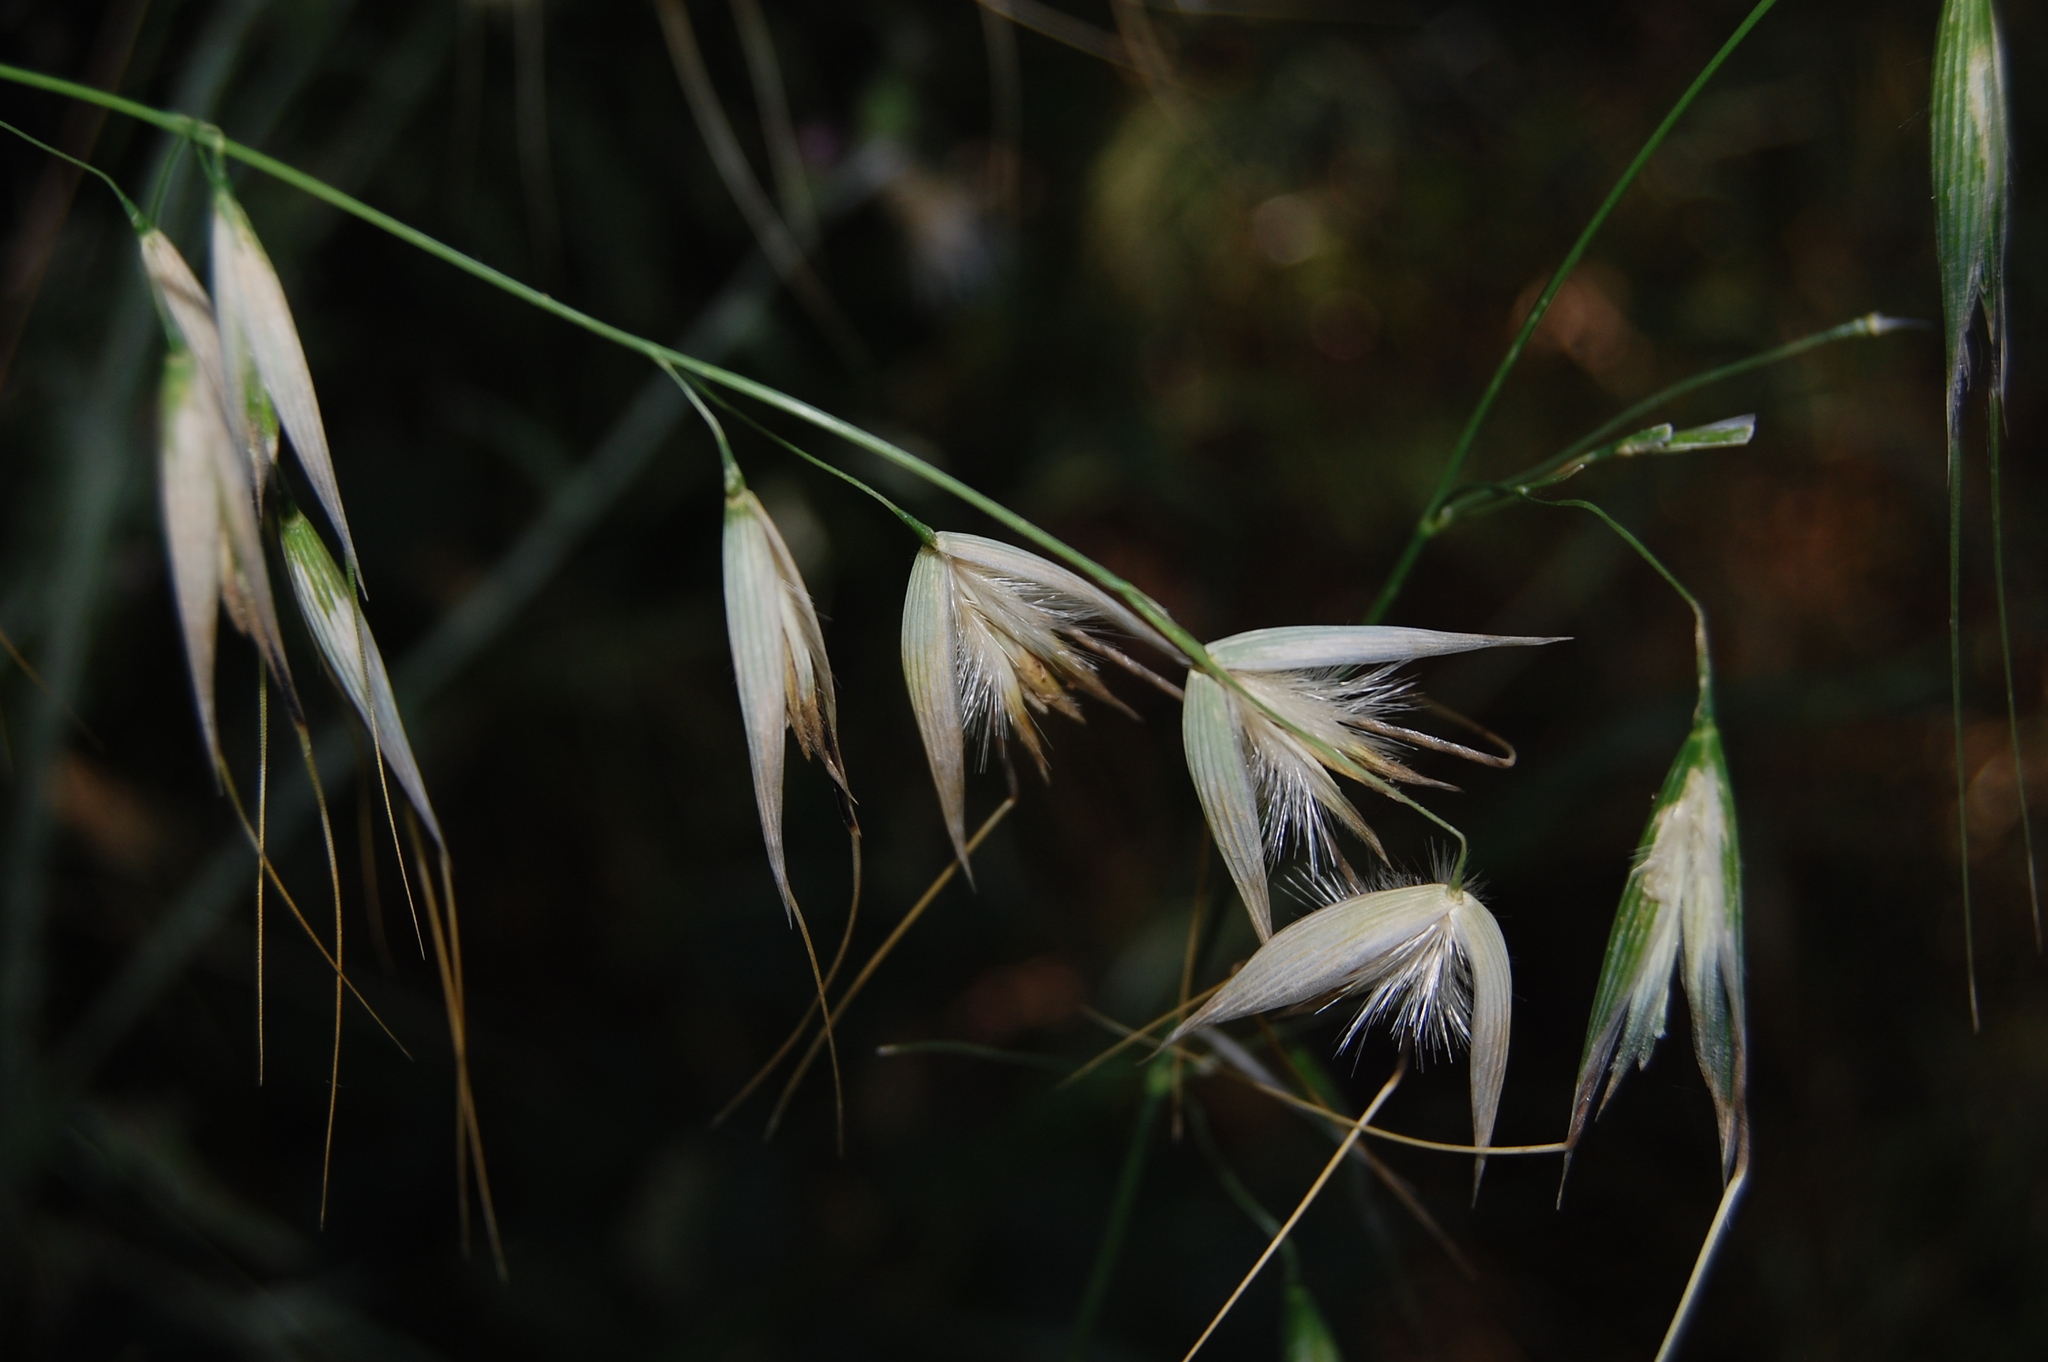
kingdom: Plantae
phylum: Tracheophyta
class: Liliopsida
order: Poales
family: Poaceae
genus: Avena
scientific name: Avena sterilis
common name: Animated oat
